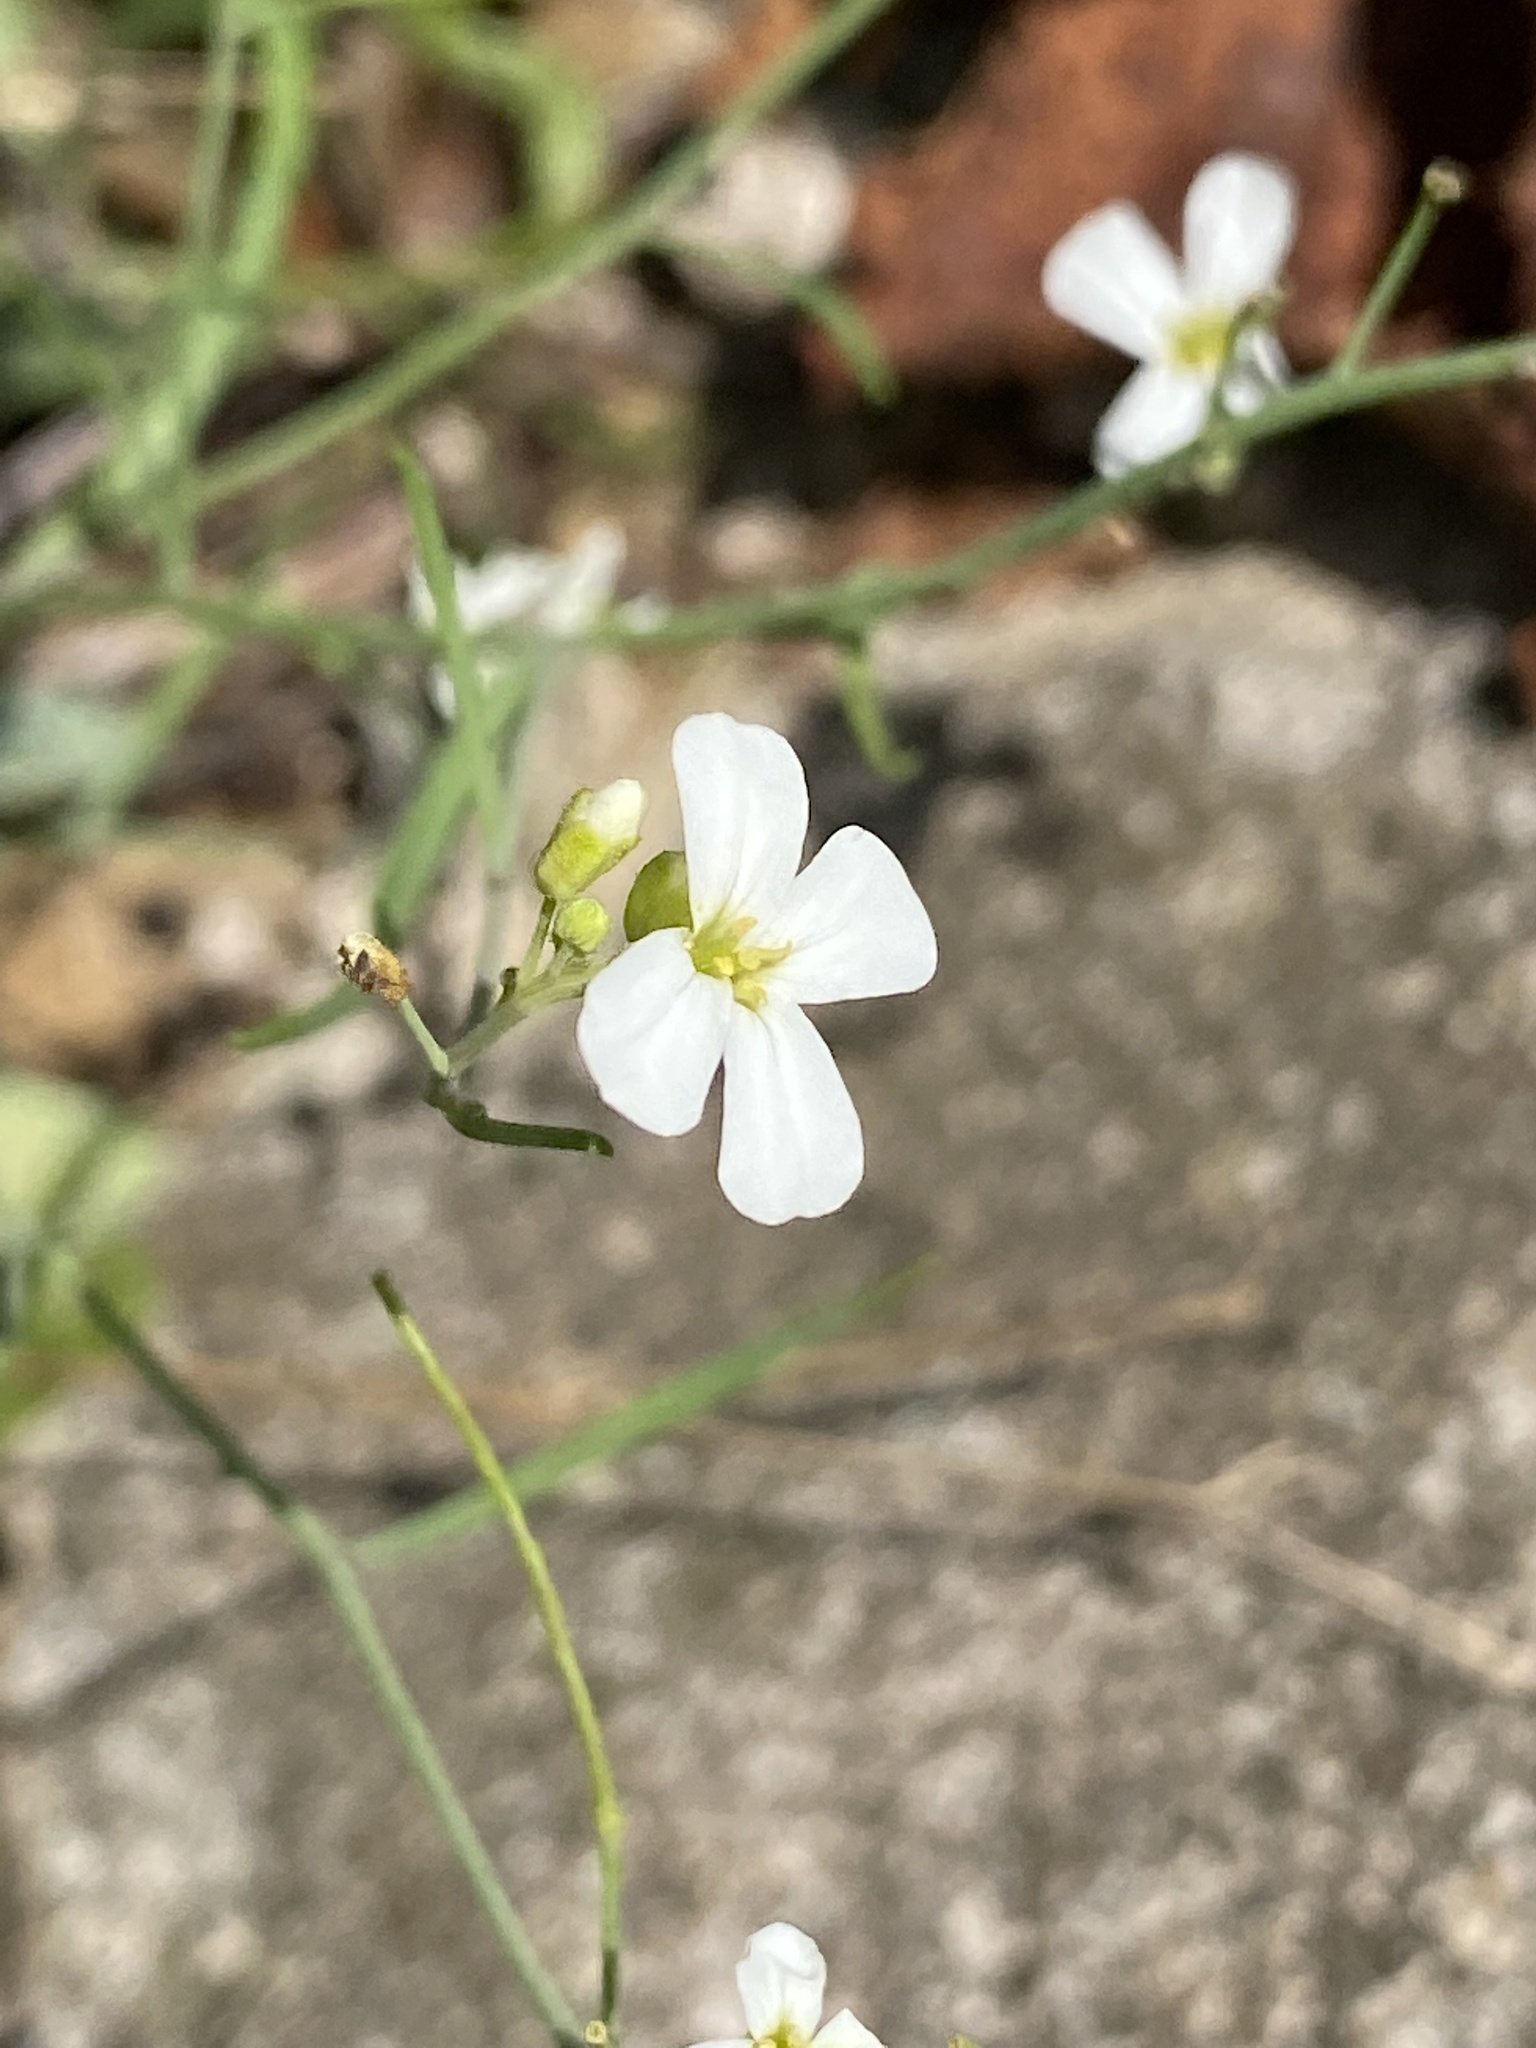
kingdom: Plantae
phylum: Tracheophyta
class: Magnoliopsida
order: Brassicales
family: Brassicaceae
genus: Arabidopsis
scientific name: Arabidopsis lyrata
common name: Lyrate rockcress
